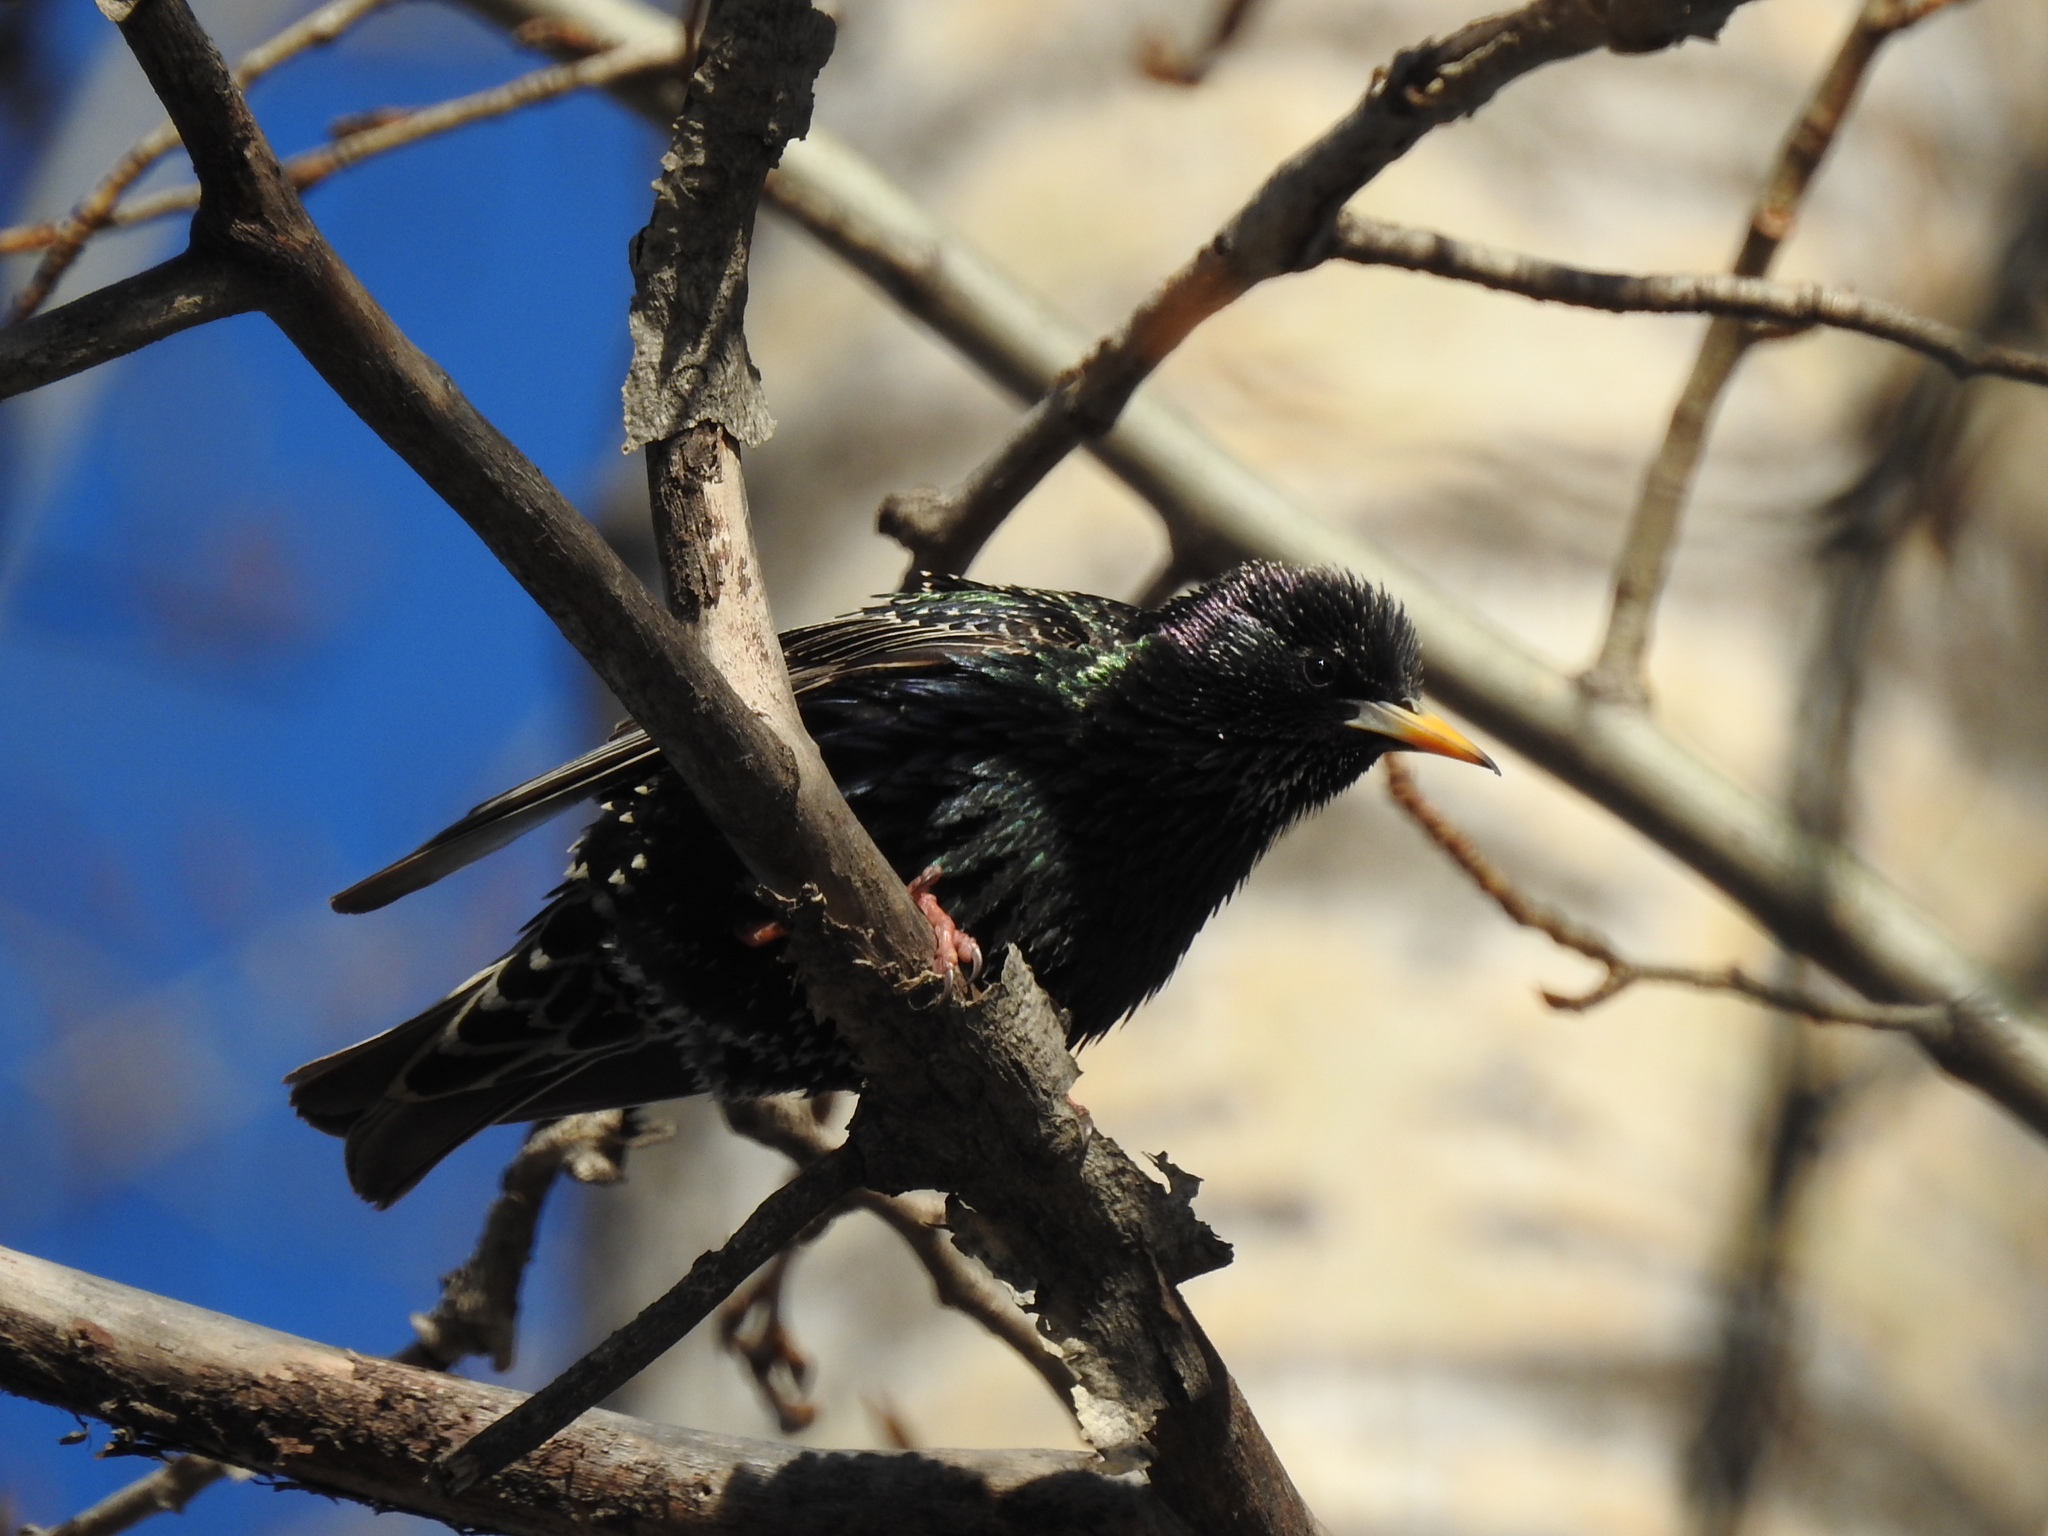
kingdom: Animalia
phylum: Chordata
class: Aves
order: Passeriformes
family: Sturnidae
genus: Sturnus
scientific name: Sturnus vulgaris
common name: Common starling
